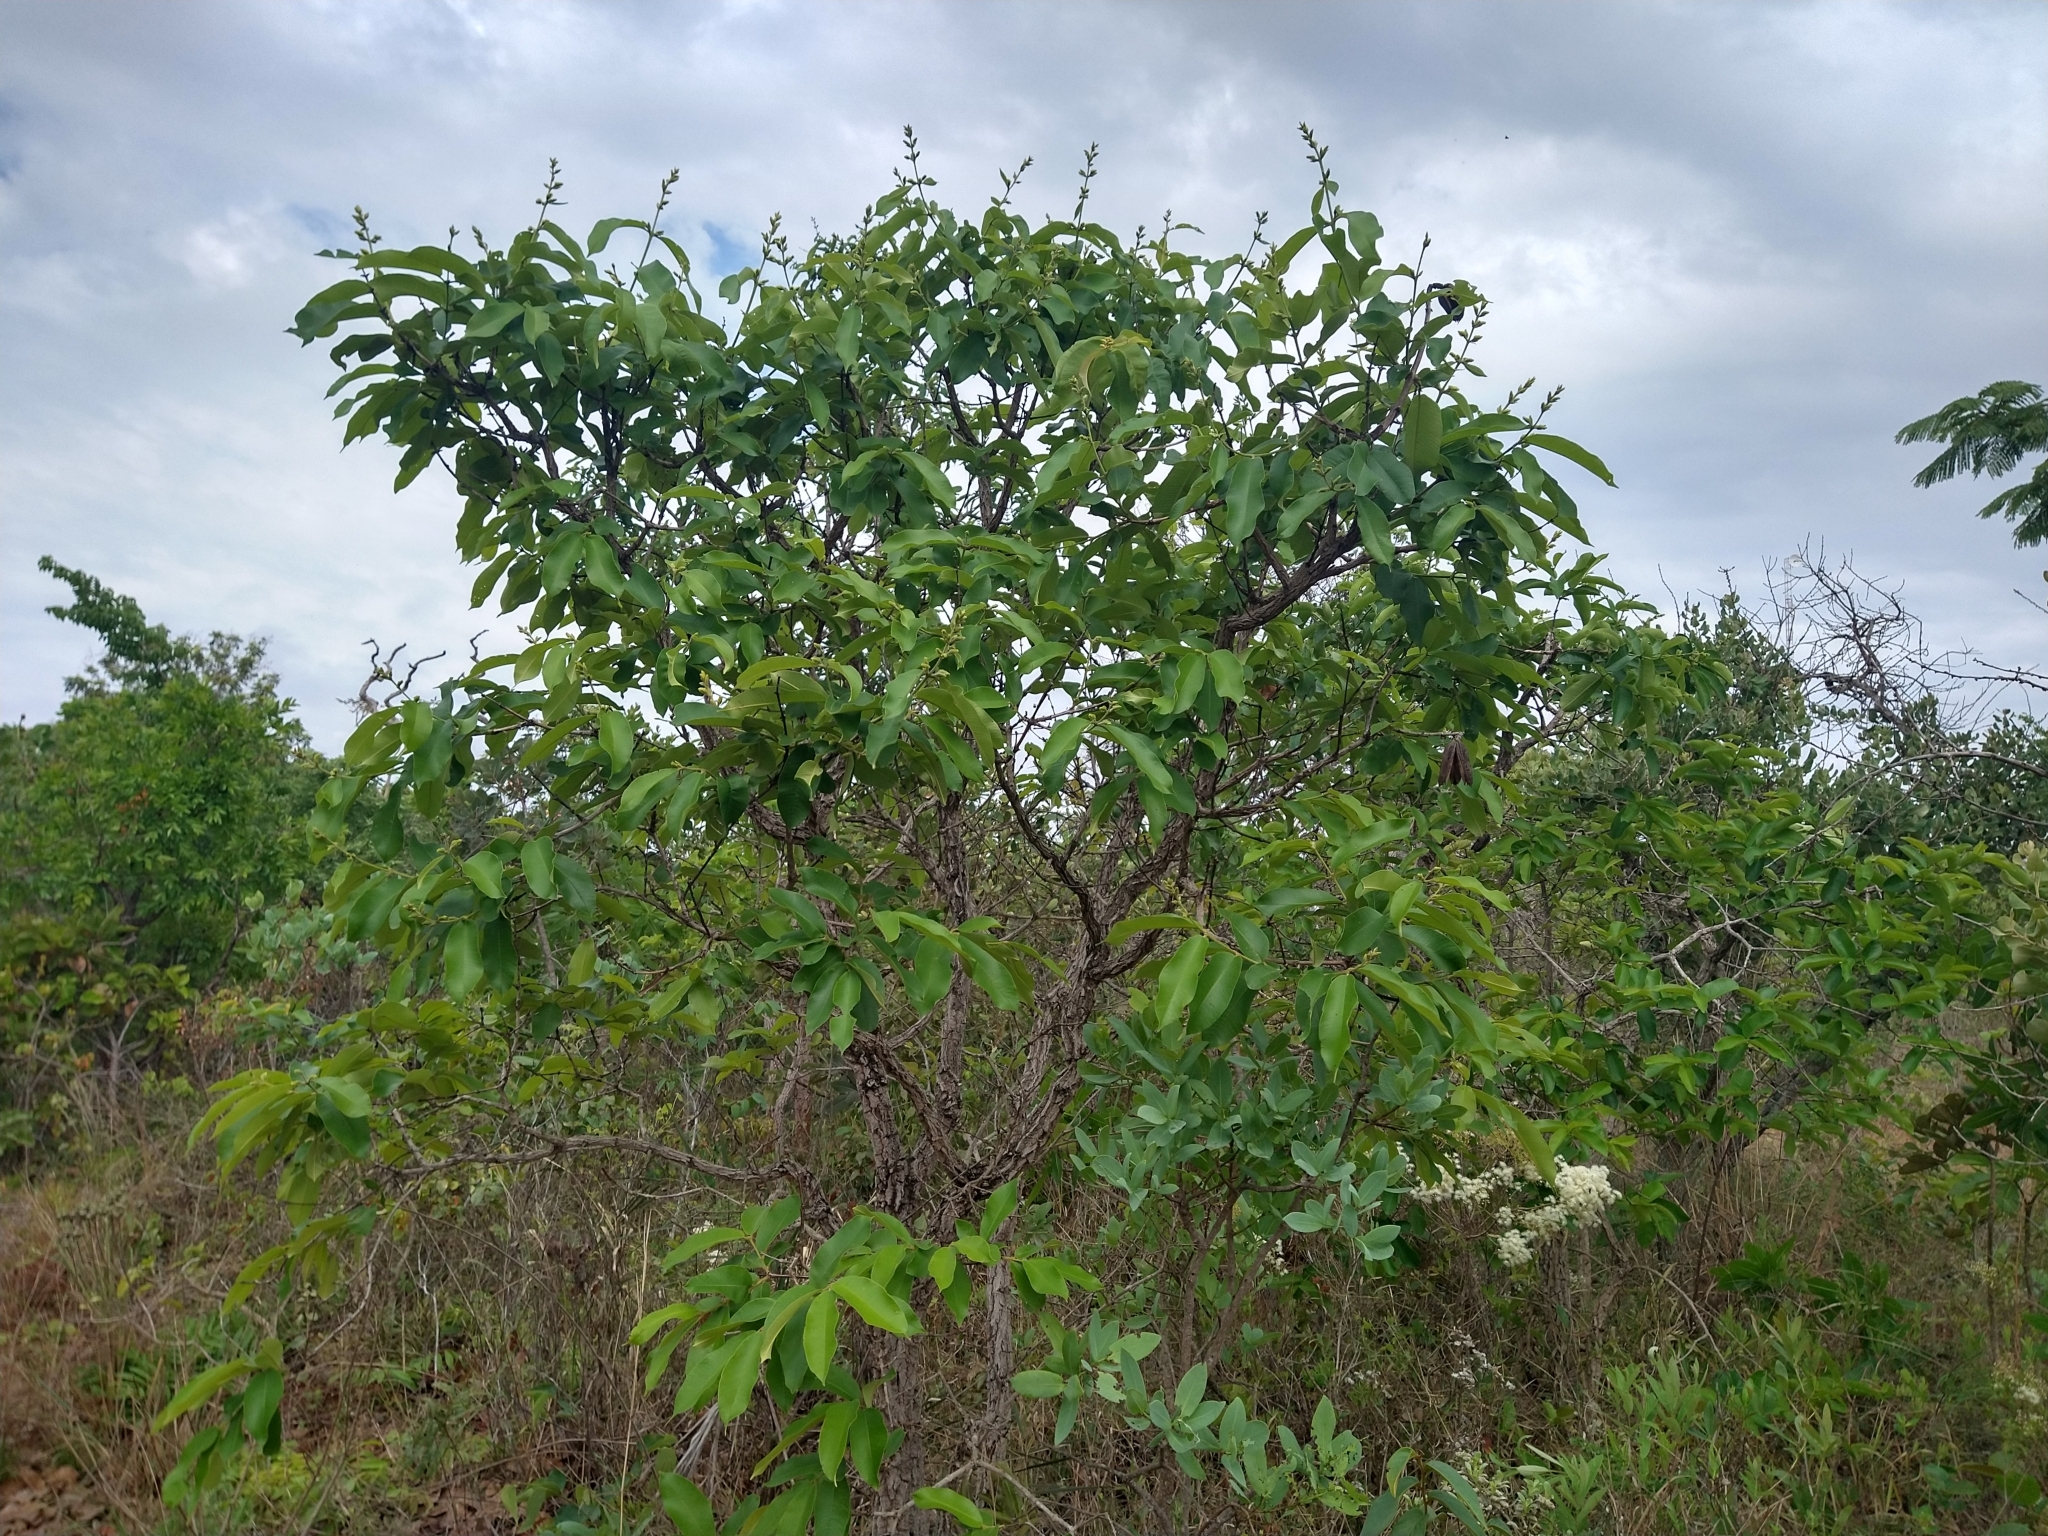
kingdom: Plantae
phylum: Tracheophyta
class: Magnoliopsida
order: Myrtales
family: Vochysiaceae
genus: Qualea
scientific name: Qualea grandiflora
